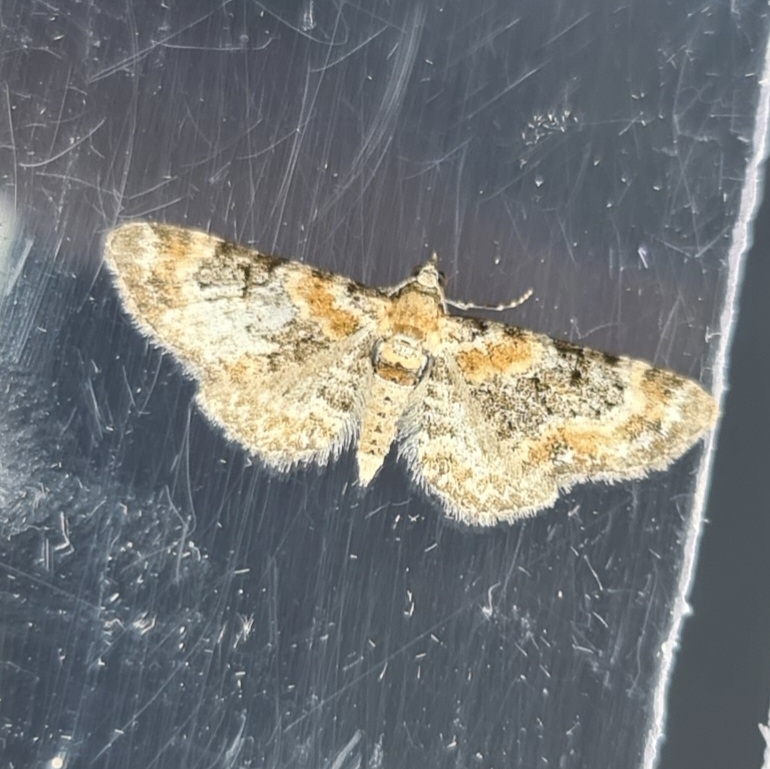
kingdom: Animalia
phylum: Arthropoda
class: Insecta
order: Lepidoptera
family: Geometridae
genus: Eupithecia
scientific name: Eupithecia pulchellata
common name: Foxglove pug
